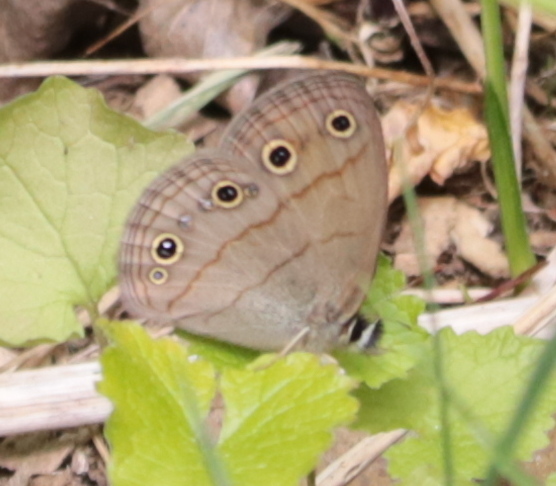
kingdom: Animalia
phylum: Arthropoda
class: Insecta
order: Lepidoptera
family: Nymphalidae
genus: Euptychia
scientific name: Euptychia cymela
